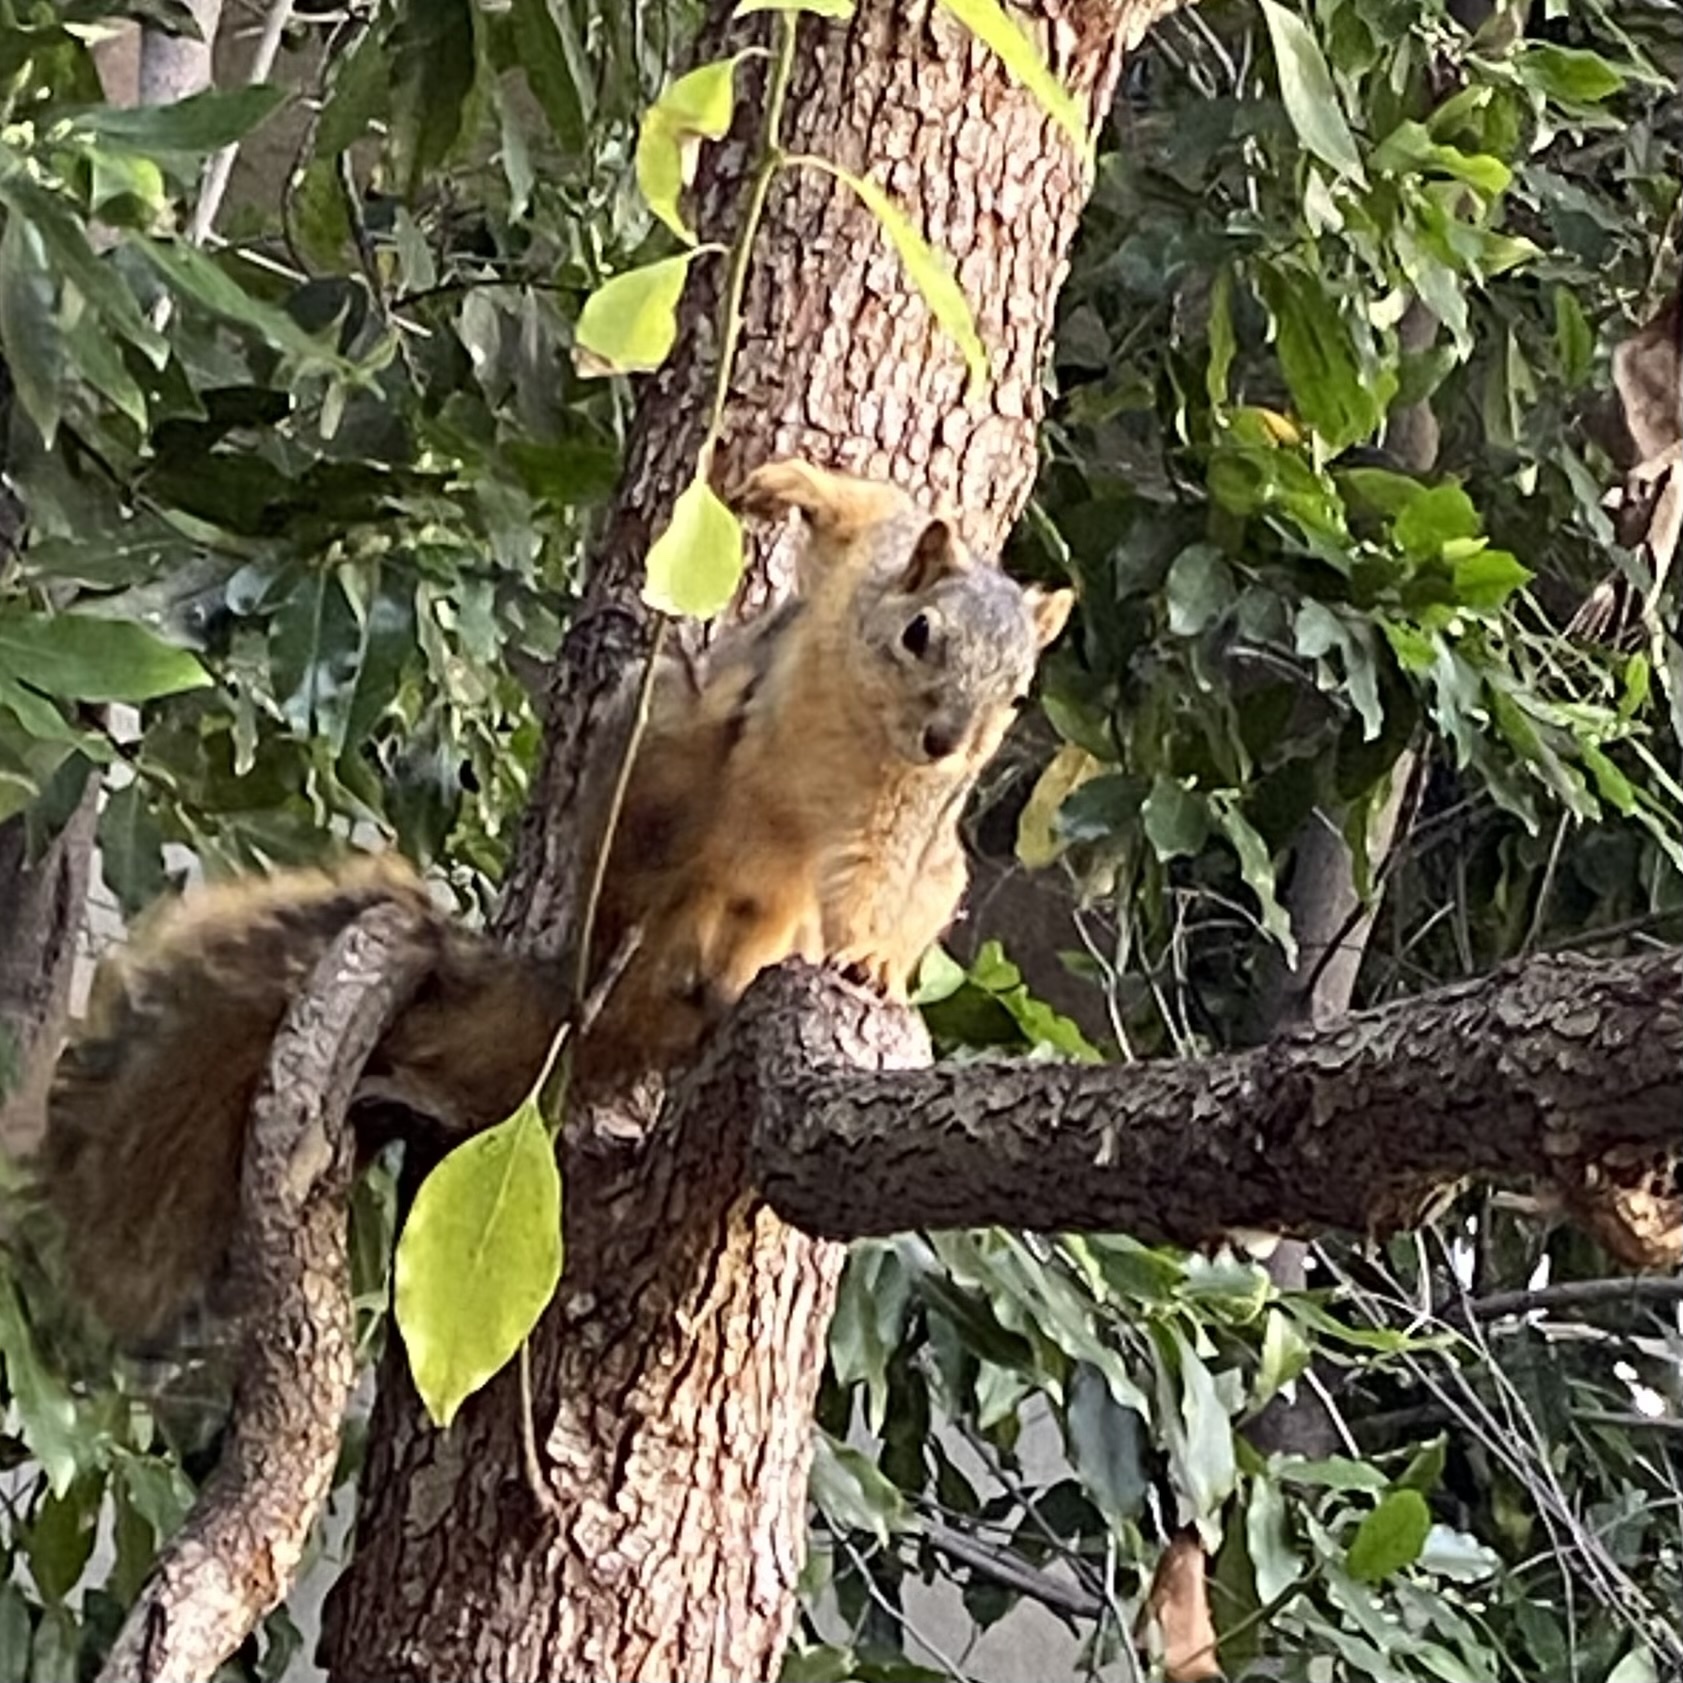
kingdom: Animalia
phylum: Chordata
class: Mammalia
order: Rodentia
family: Sciuridae
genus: Sciurus
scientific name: Sciurus niger
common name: Fox squirrel
